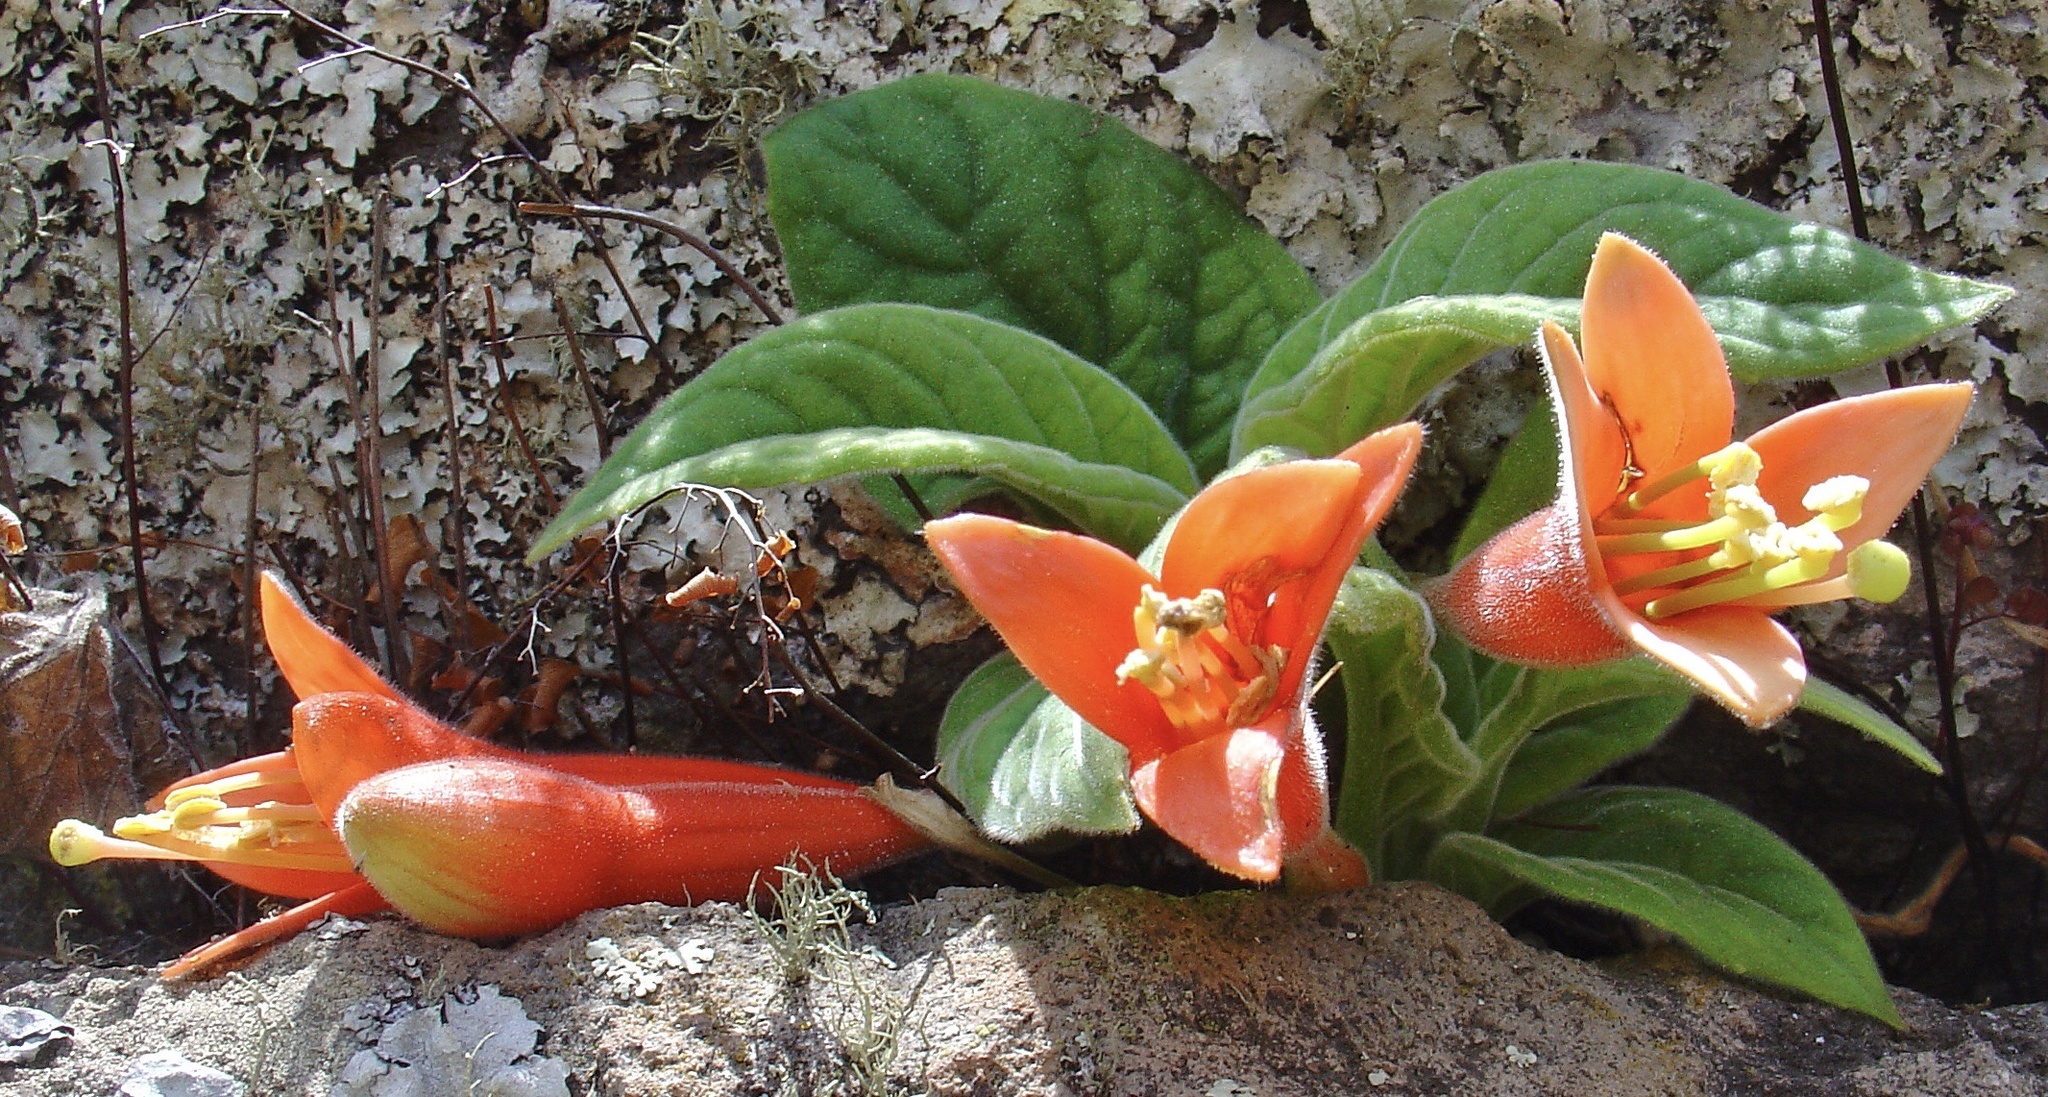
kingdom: Plantae
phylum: Tracheophyta
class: Magnoliopsida
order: Myrtales
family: Onagraceae
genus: Fuchsia
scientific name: Fuchsia apetala
